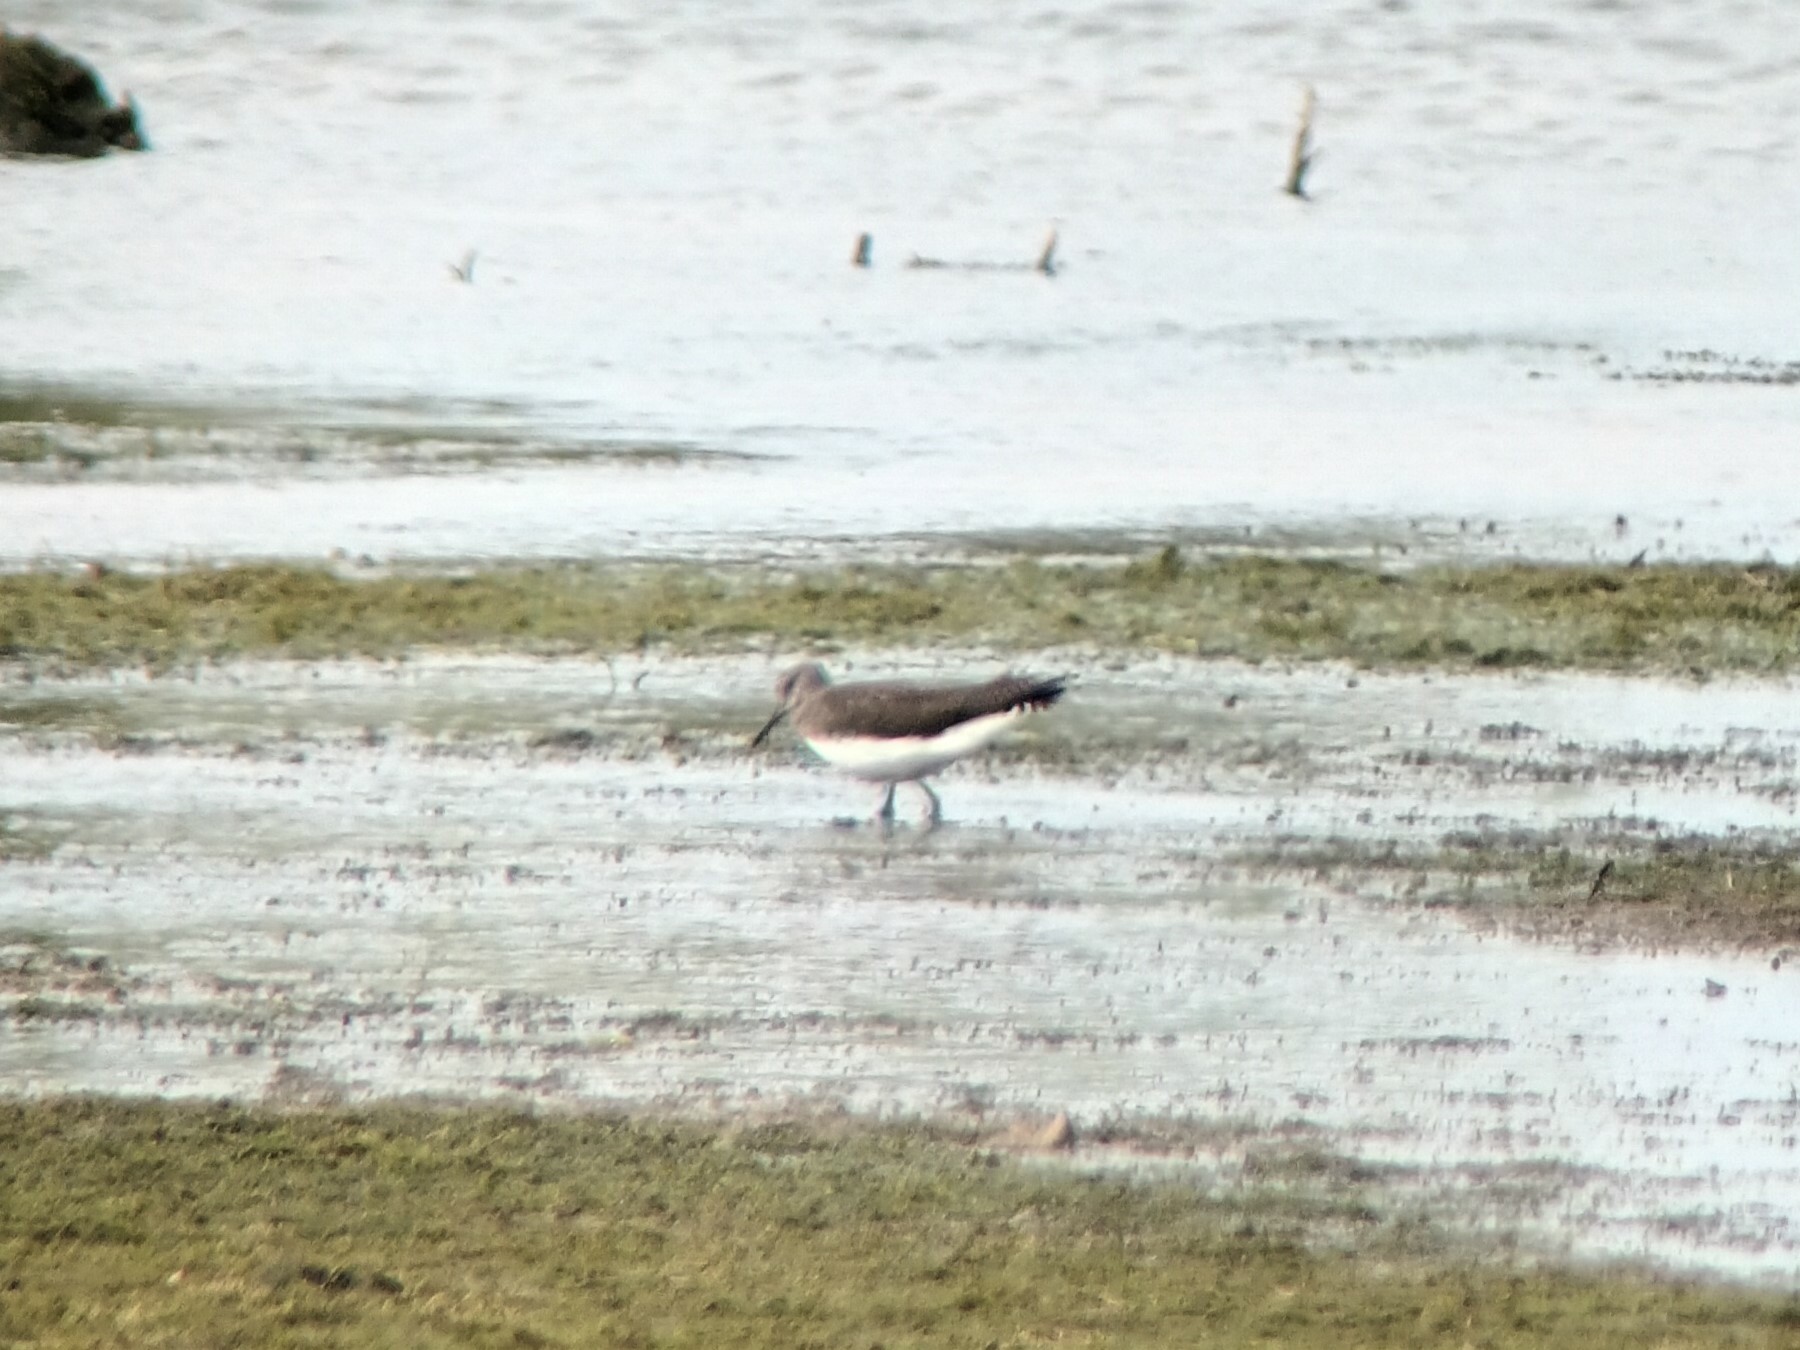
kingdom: Animalia
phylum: Chordata
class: Aves
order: Charadriiformes
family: Scolopacidae
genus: Tringa
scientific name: Tringa ochropus
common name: Green sandpiper
